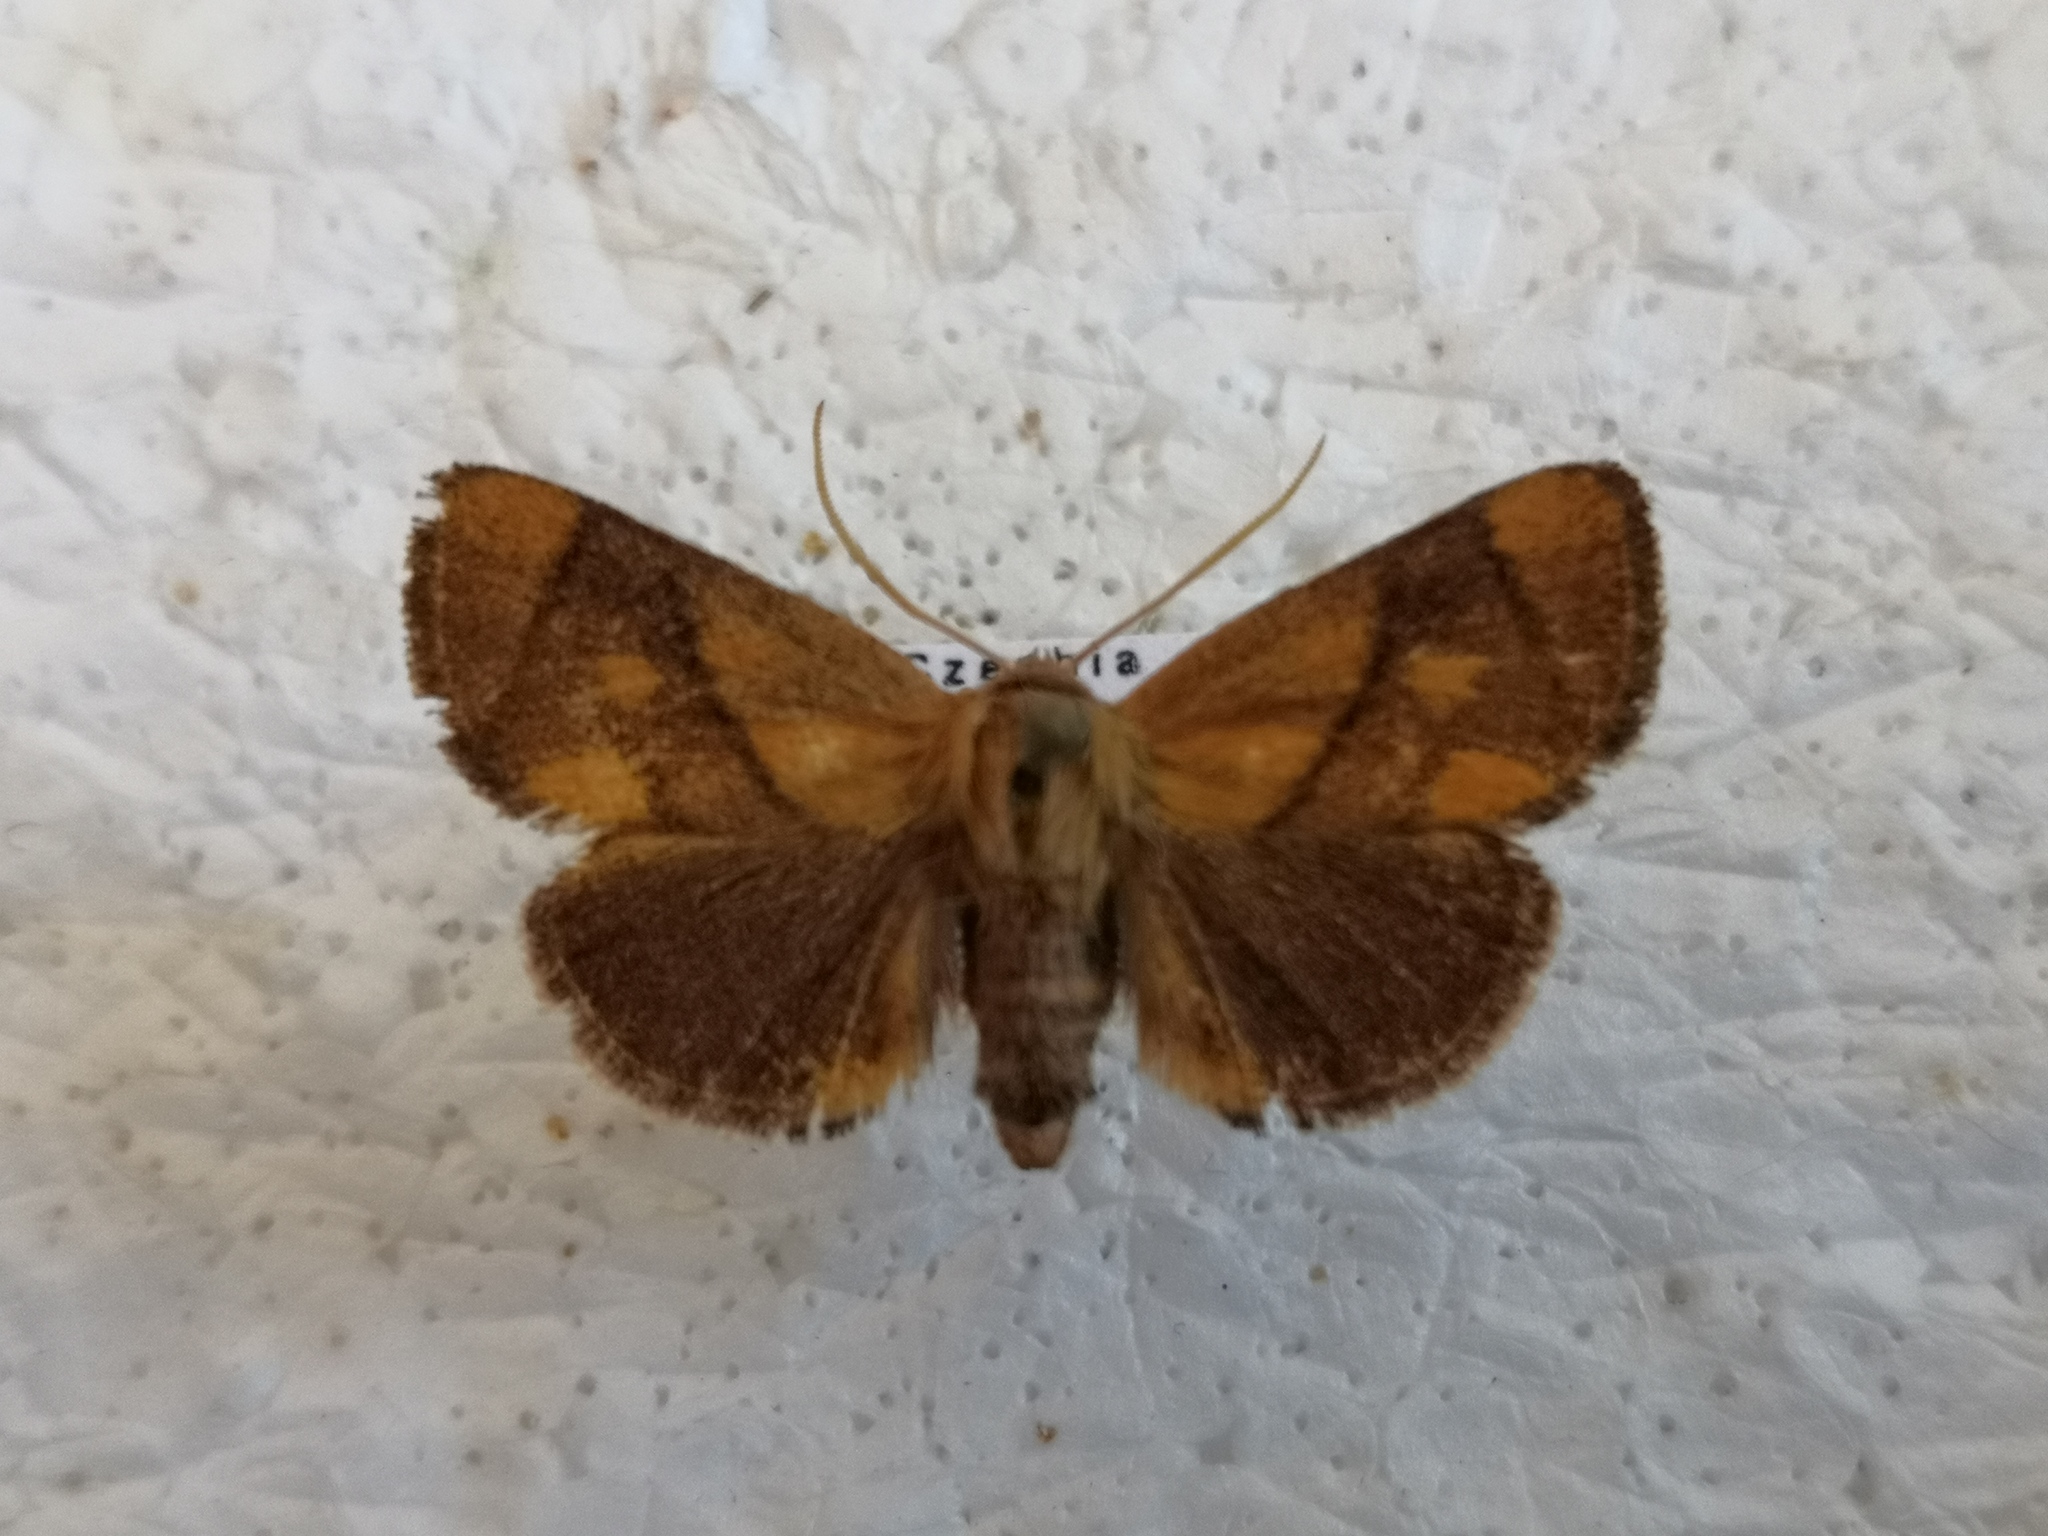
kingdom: Animalia
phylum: Arthropoda
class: Insecta
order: Lepidoptera
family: Limacodidae
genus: Apoda
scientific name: Apoda limacodes
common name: Festoon
